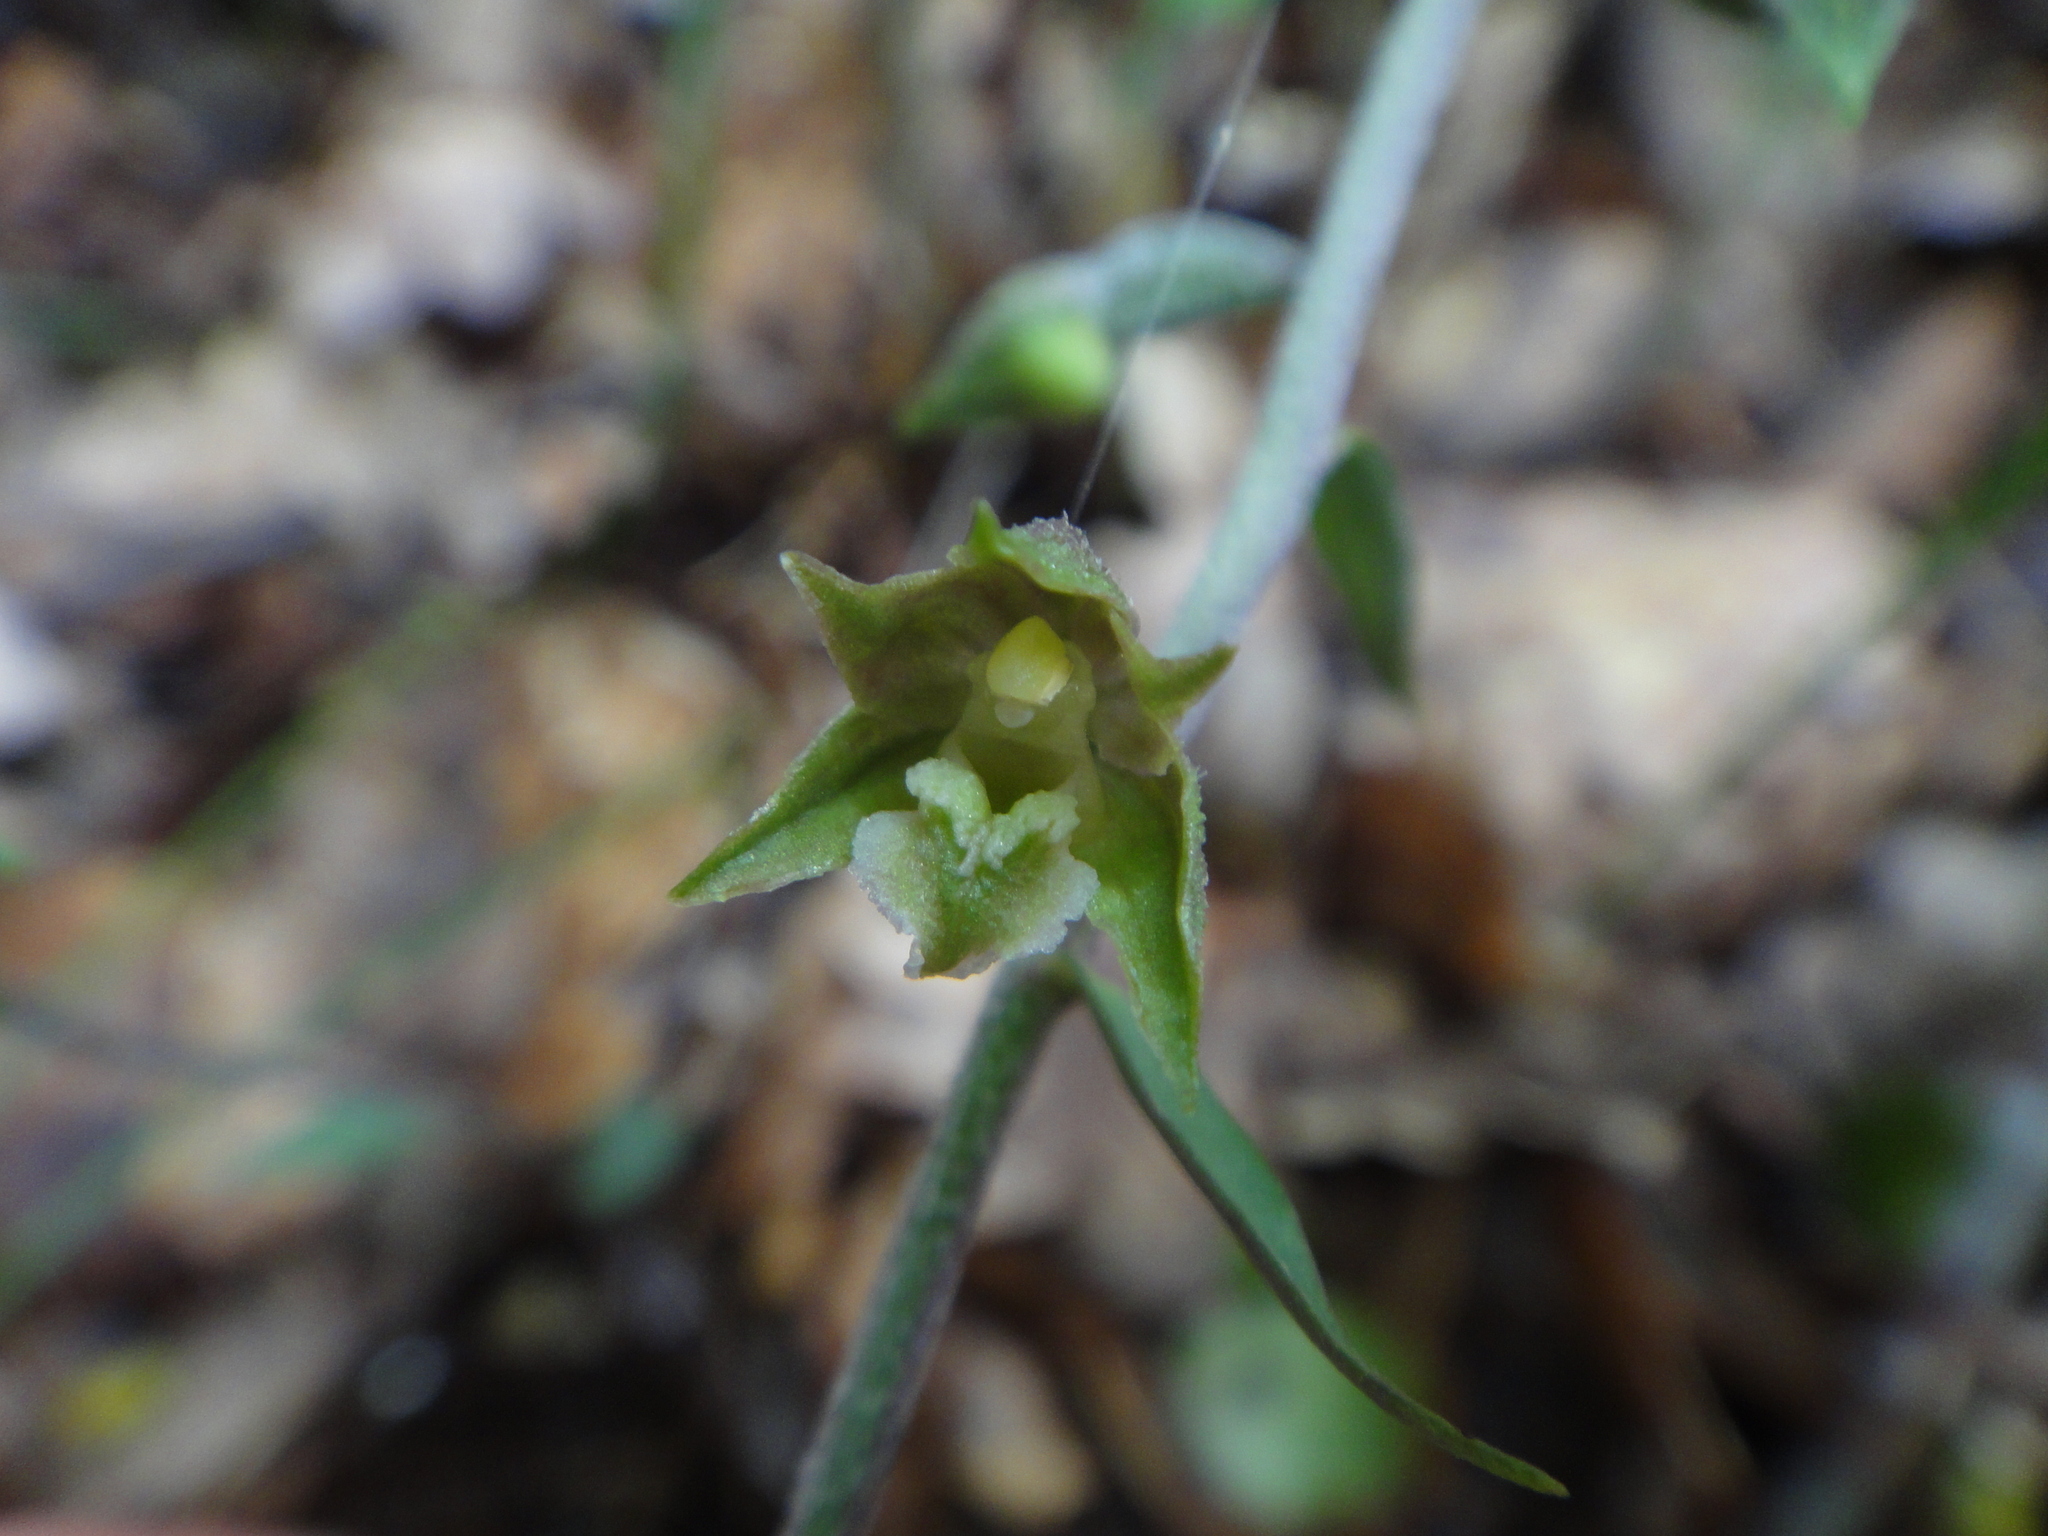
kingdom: Plantae
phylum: Tracheophyta
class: Liliopsida
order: Asparagales
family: Orchidaceae
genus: Epipactis
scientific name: Epipactis microphylla
